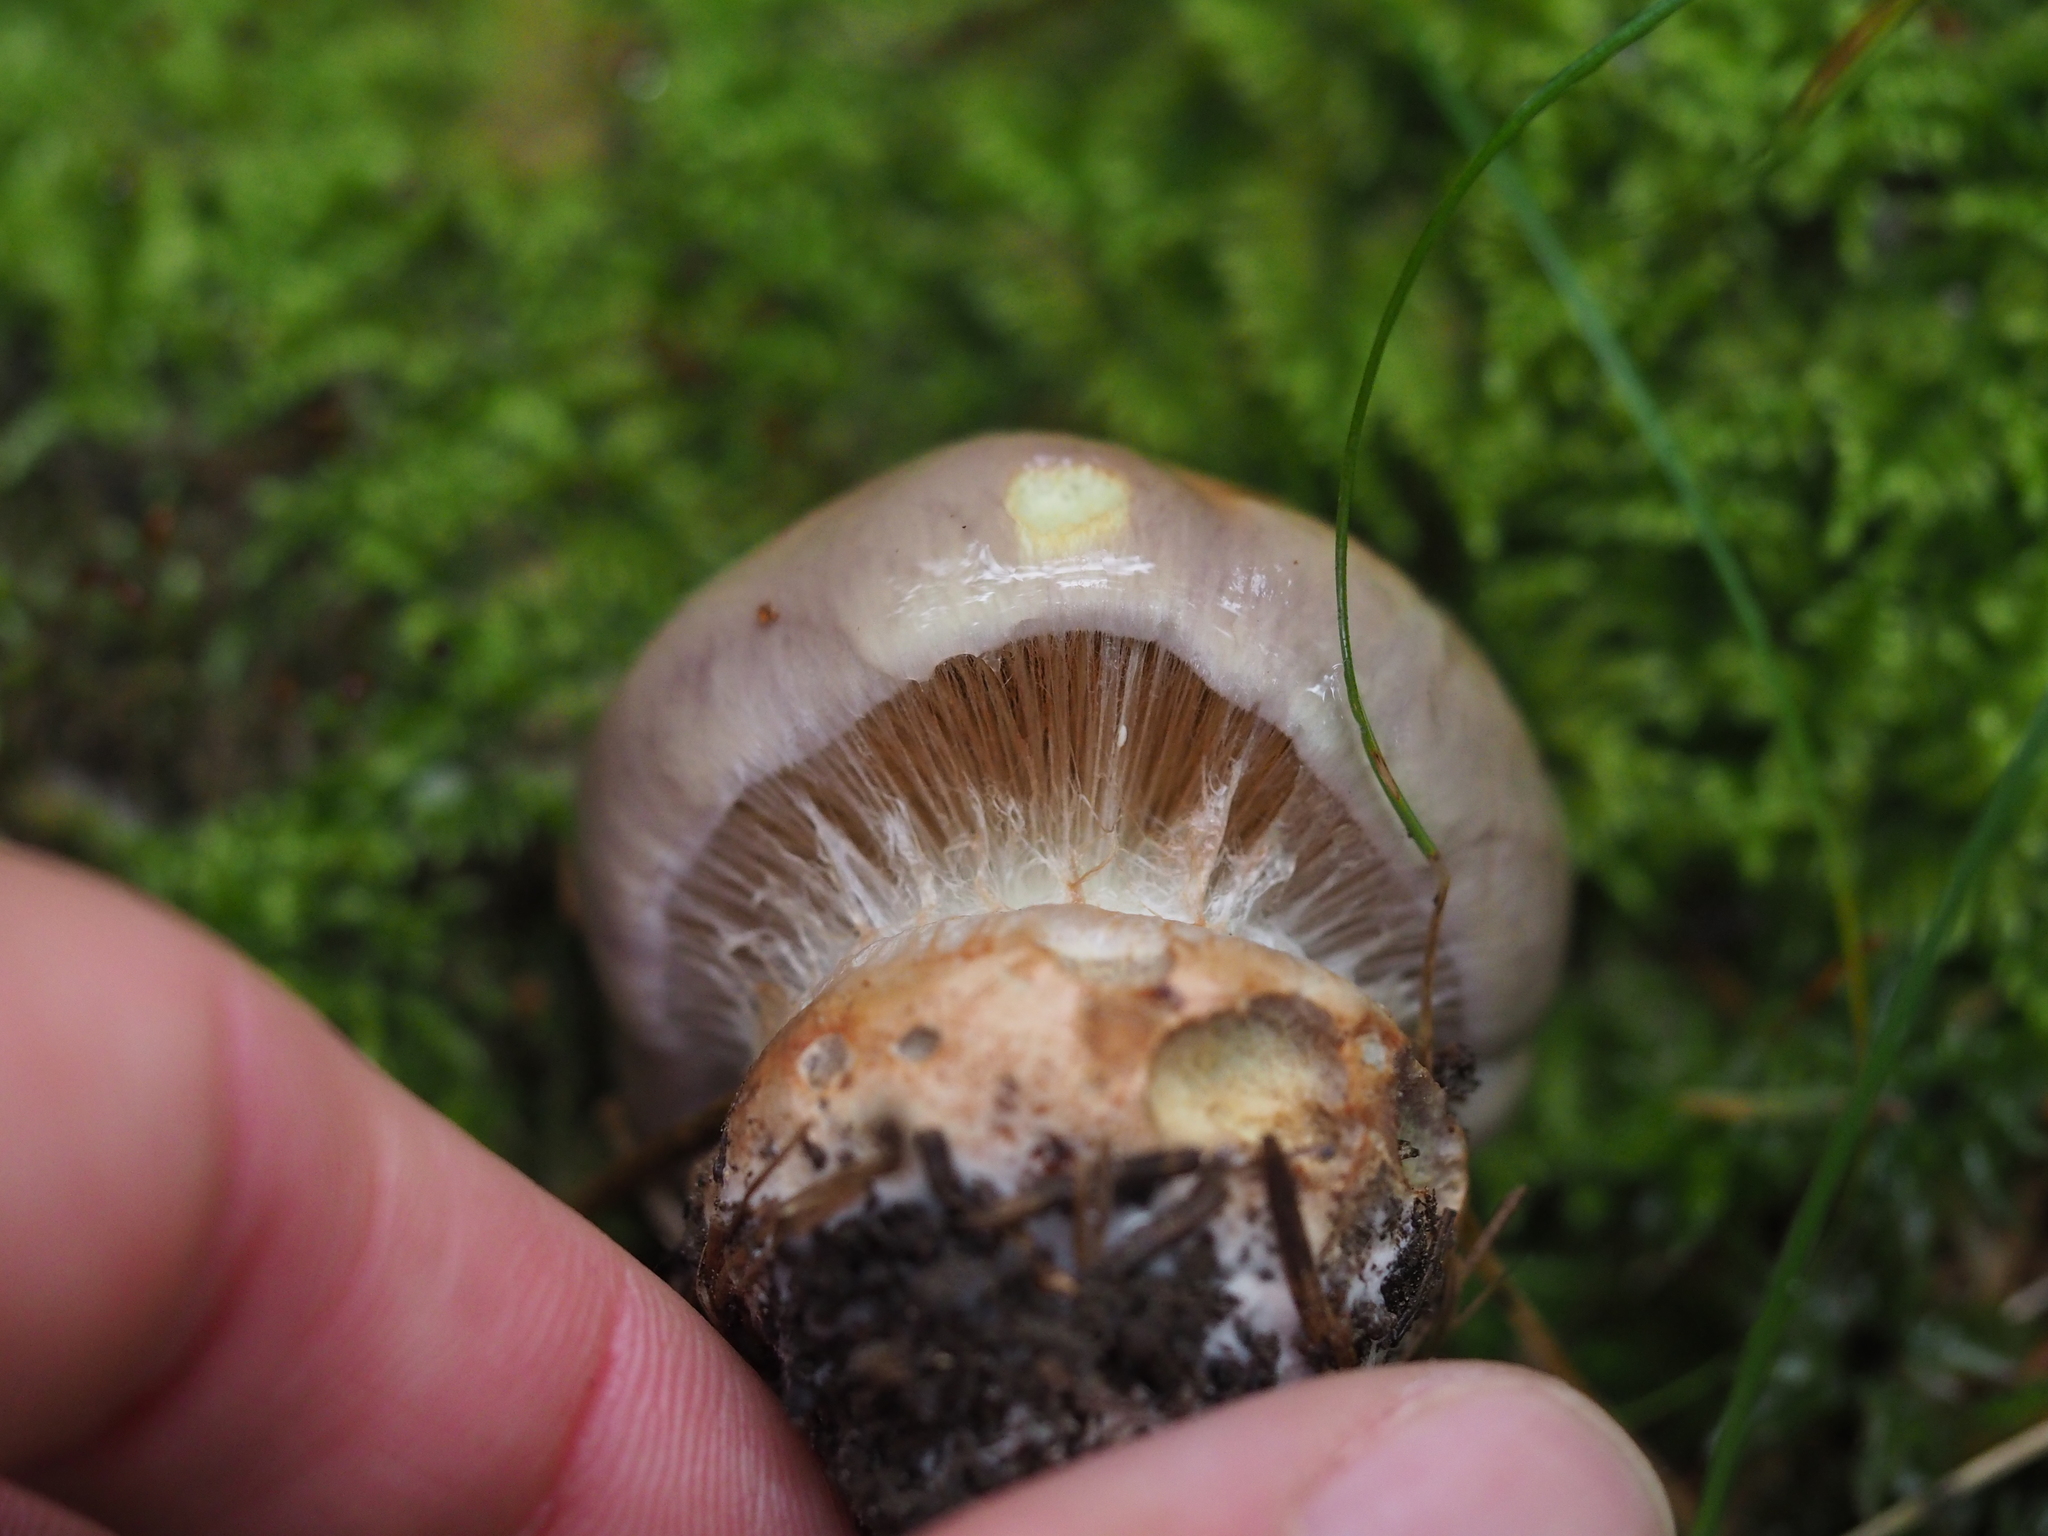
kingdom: Fungi
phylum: Basidiomycota
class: Agaricomycetes
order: Agaricales
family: Cortinariaceae
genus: Cortinarius
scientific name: Cortinarius
